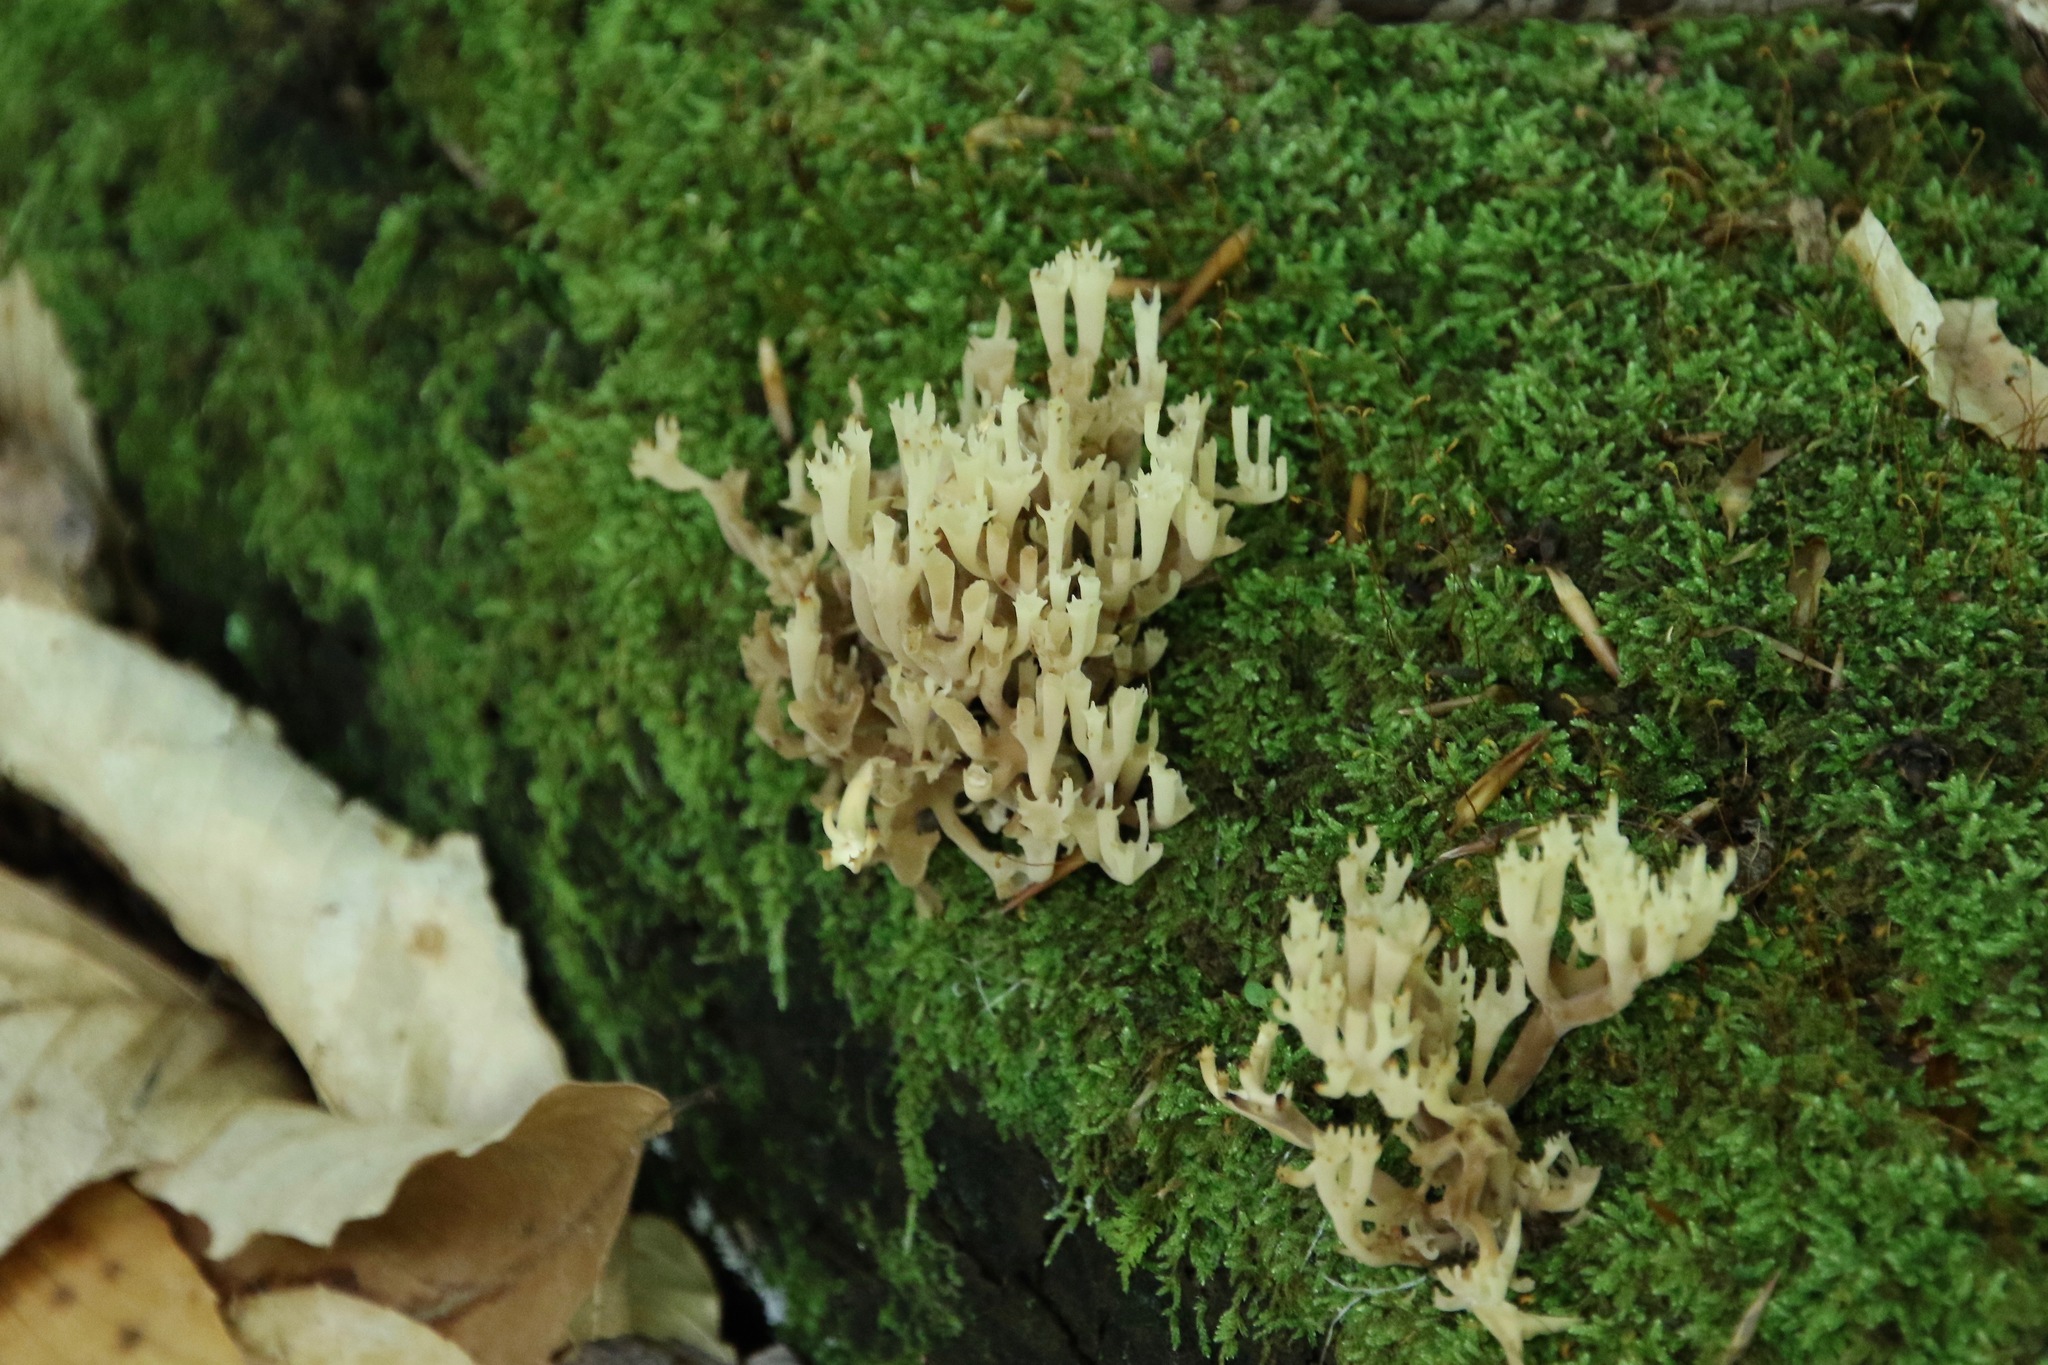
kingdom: Fungi
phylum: Basidiomycota
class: Agaricomycetes
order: Russulales
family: Auriscalpiaceae
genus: Artomyces
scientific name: Artomyces pyxidatus
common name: Crown-tipped coral fungus
